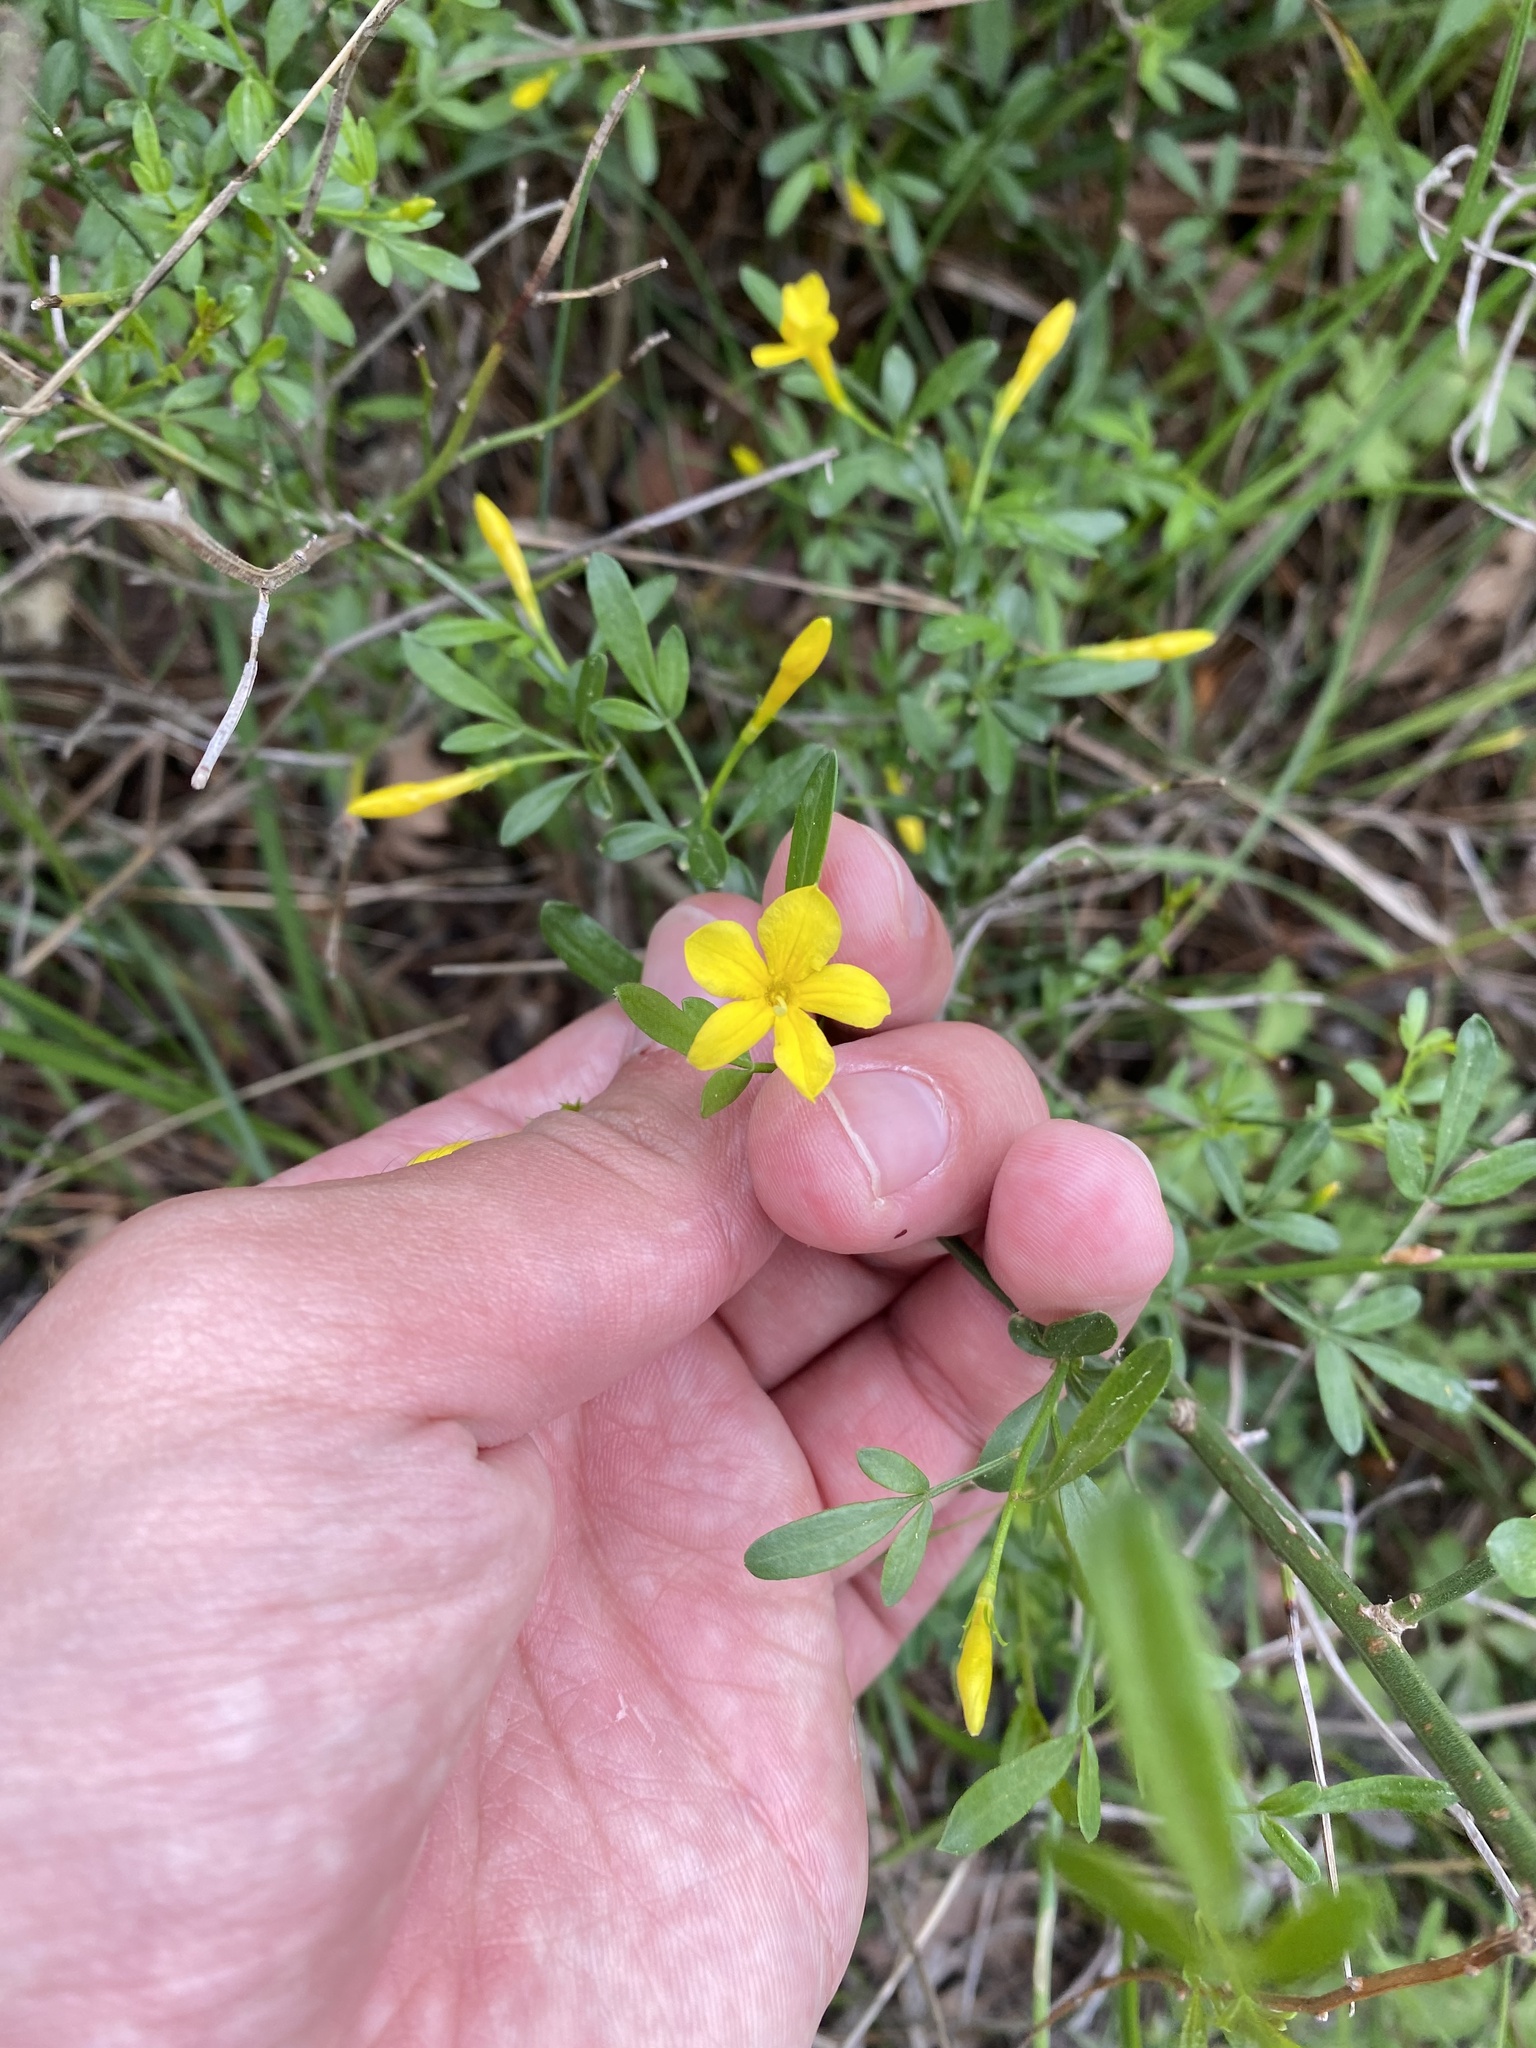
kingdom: Plantae
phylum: Tracheophyta
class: Magnoliopsida
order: Lamiales
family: Oleaceae
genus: Chrysojasminum
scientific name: Chrysojasminum fruticans
